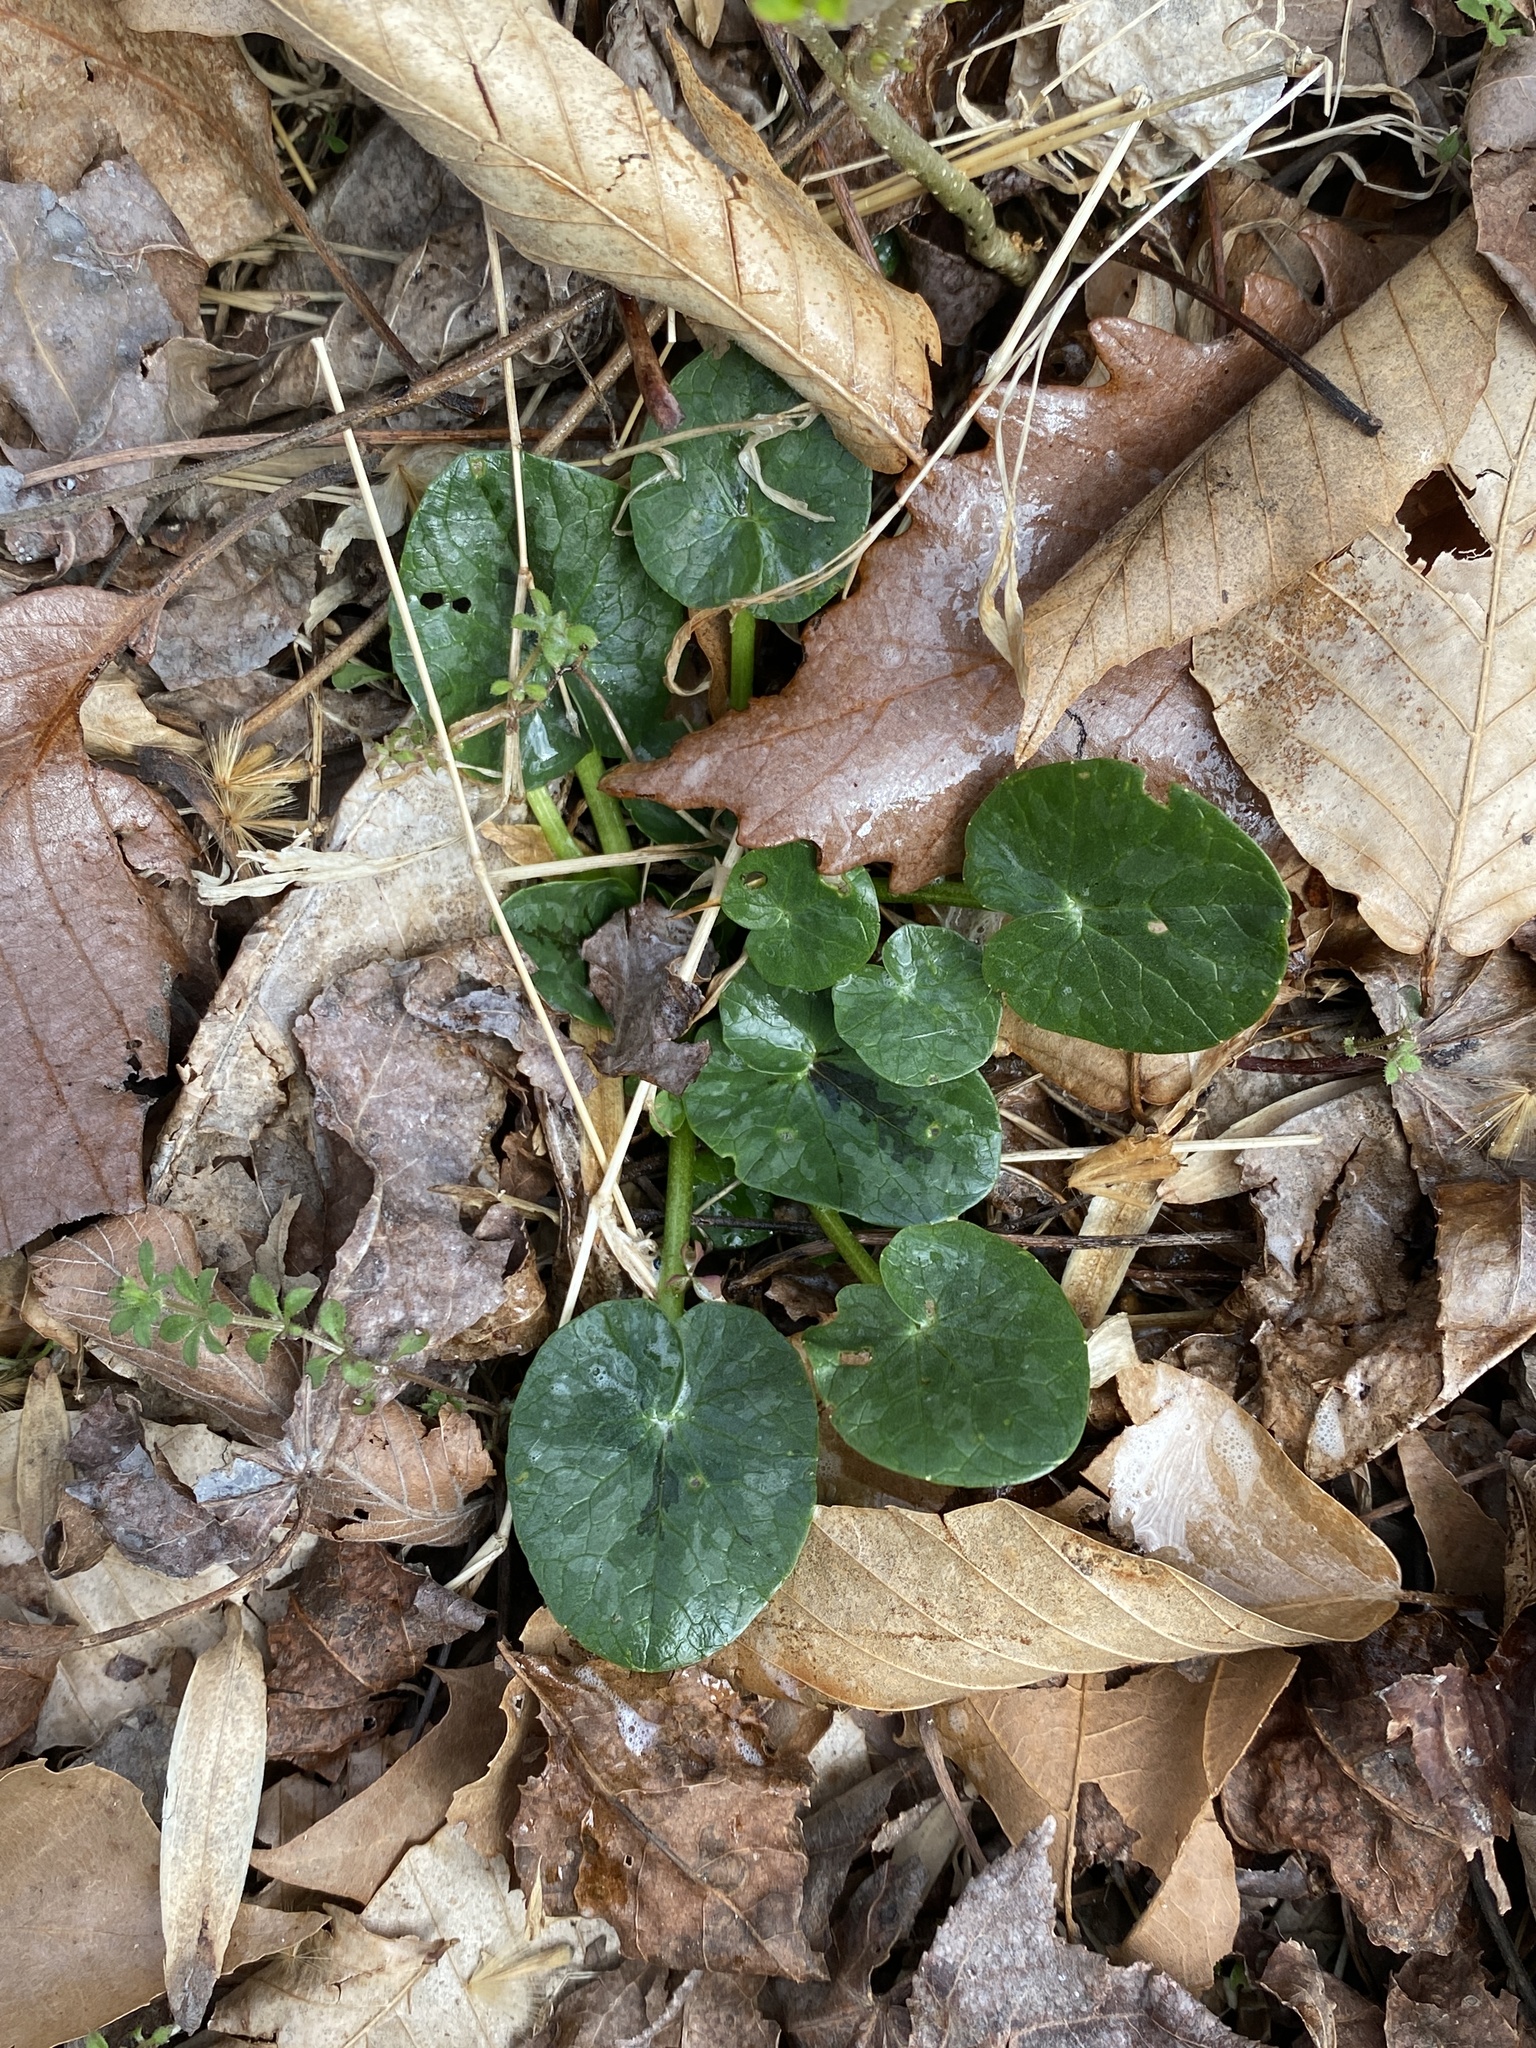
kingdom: Plantae
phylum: Tracheophyta
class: Magnoliopsida
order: Ranunculales
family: Ranunculaceae
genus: Ficaria
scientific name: Ficaria verna
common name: Lesser celandine
